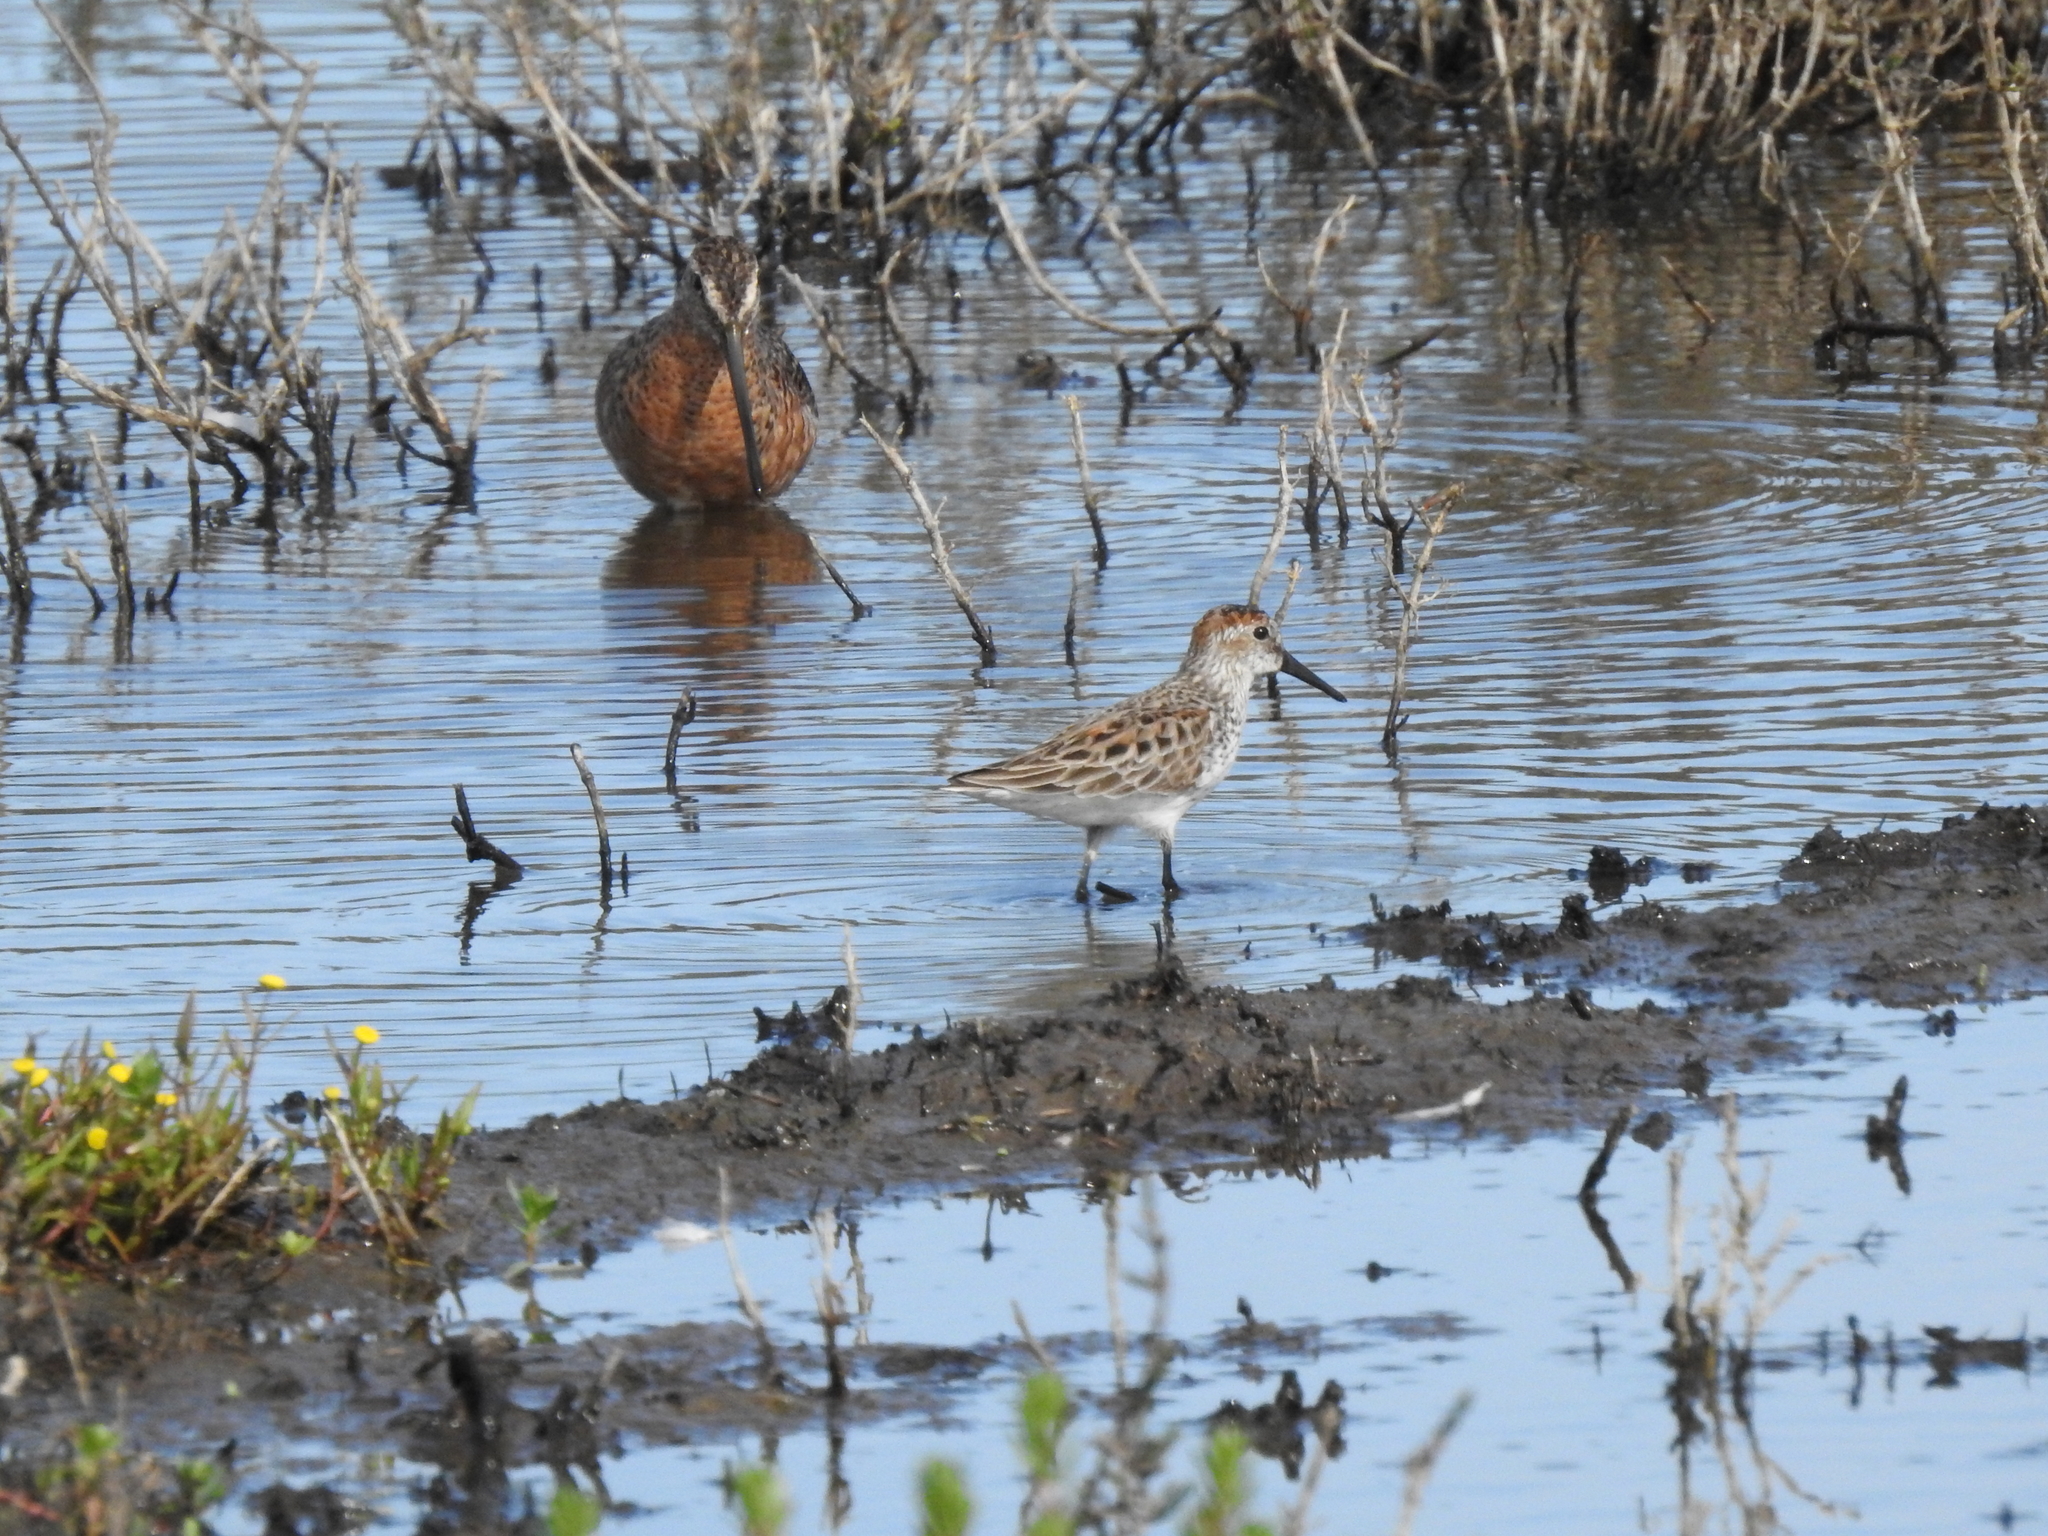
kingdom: Animalia
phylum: Chordata
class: Aves
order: Charadriiformes
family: Scolopacidae
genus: Calidris
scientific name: Calidris mauri
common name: Western sandpiper
